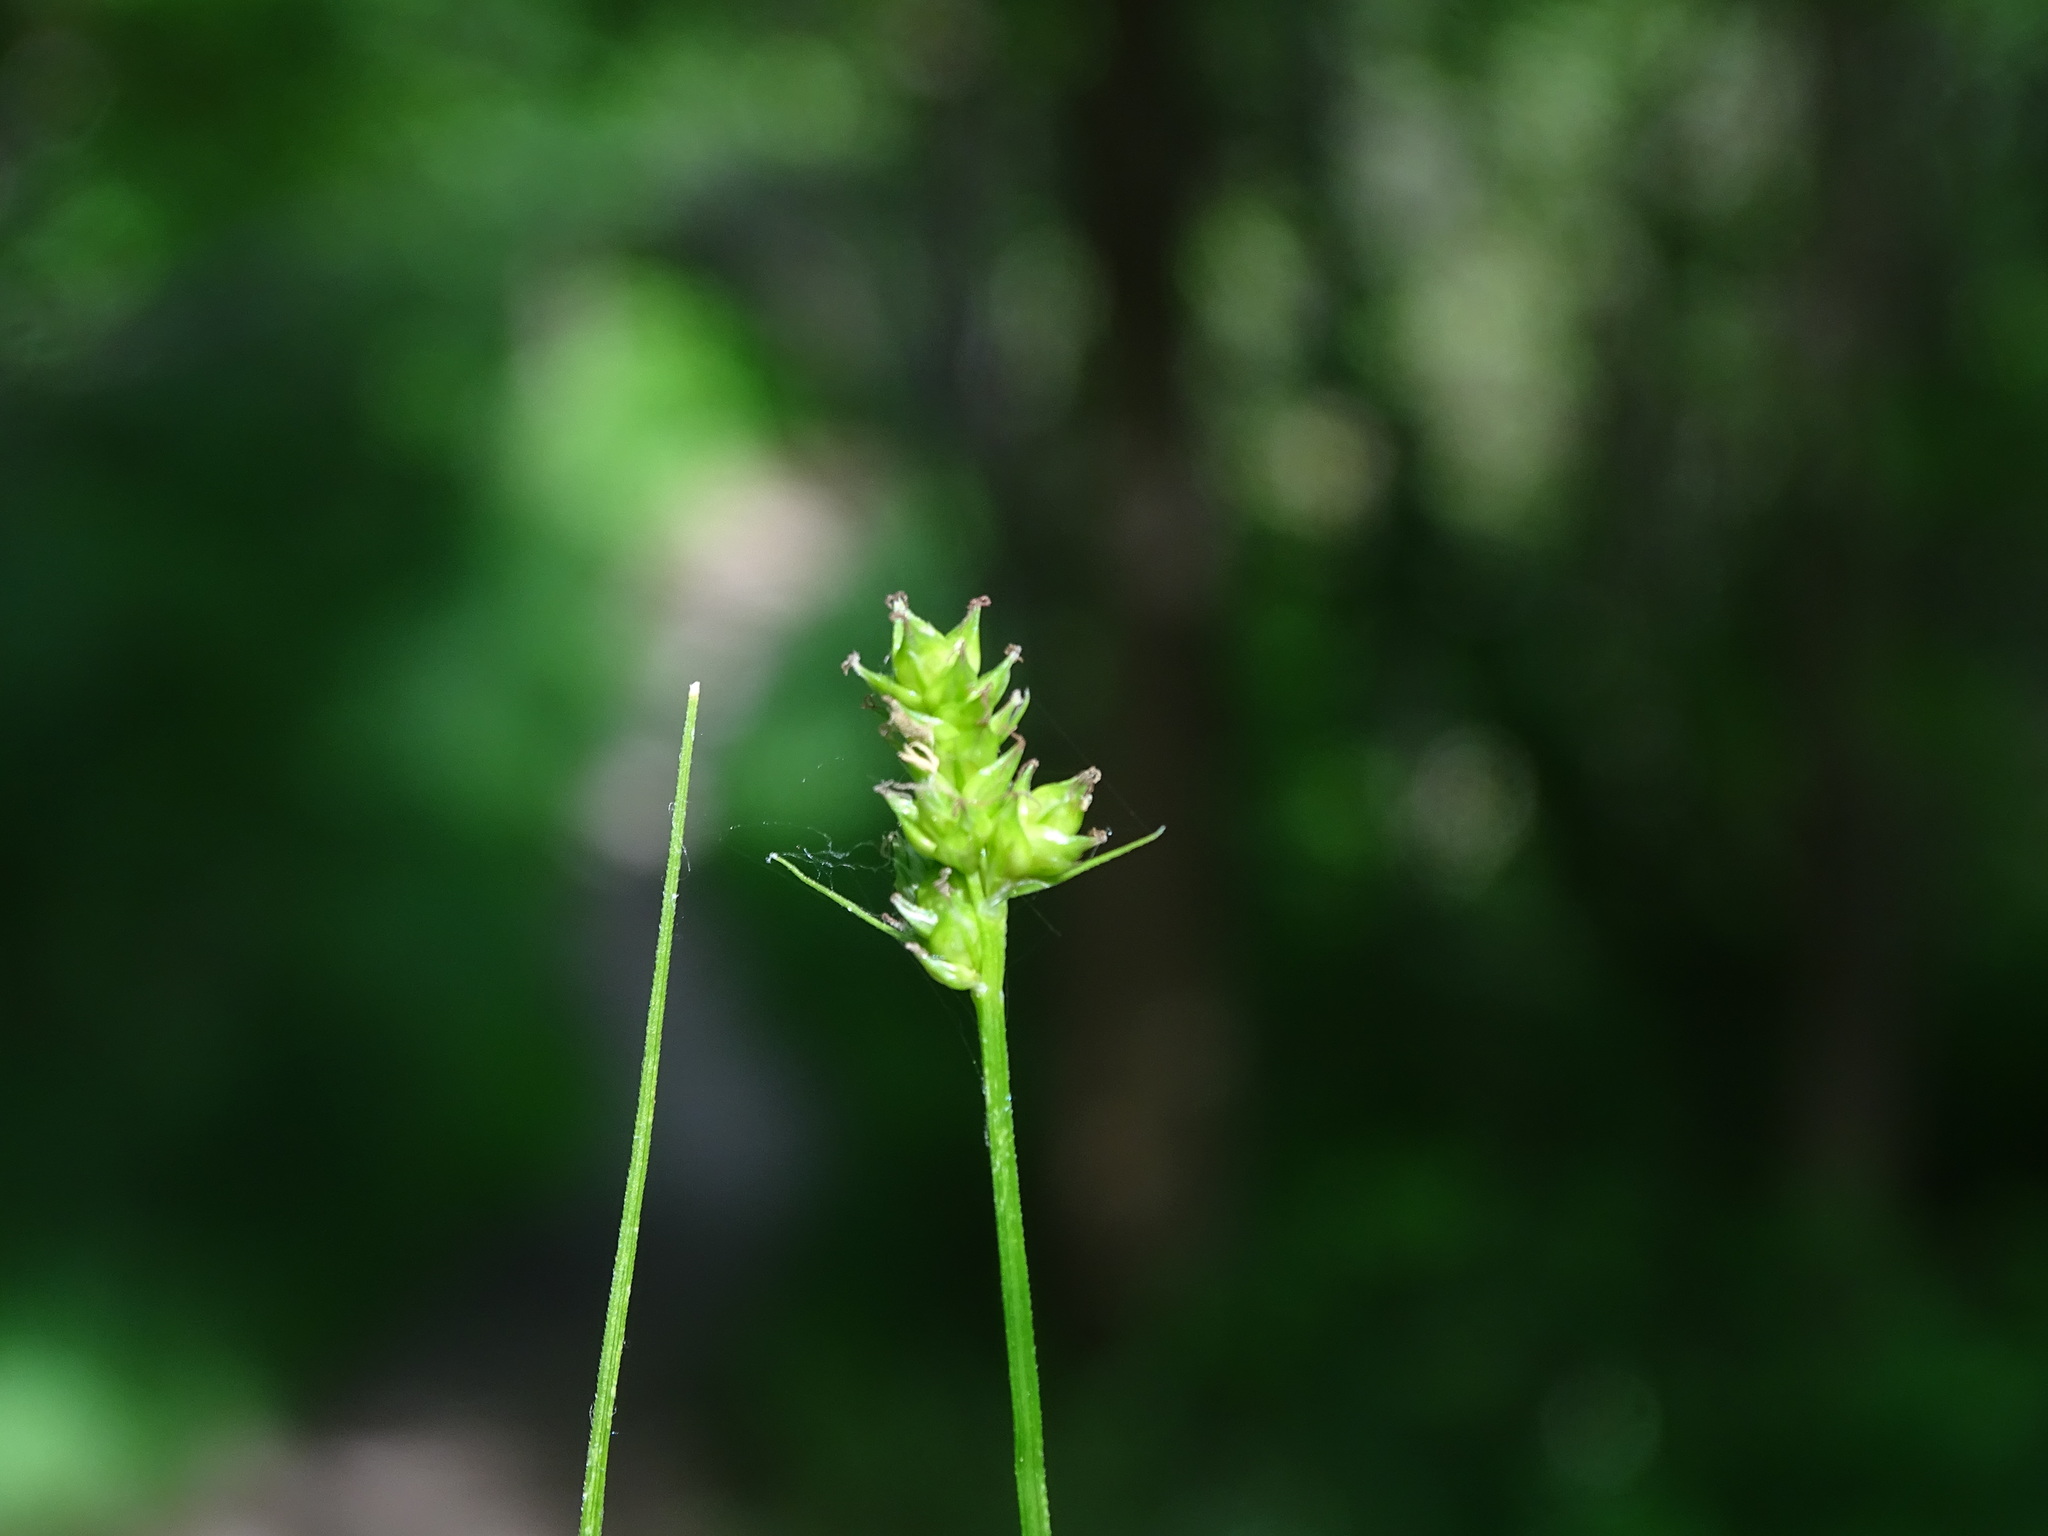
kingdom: Plantae
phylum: Tracheophyta
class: Liliopsida
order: Poales
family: Cyperaceae
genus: Carex
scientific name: Carex cephalophora
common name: Oval-headed sedge
